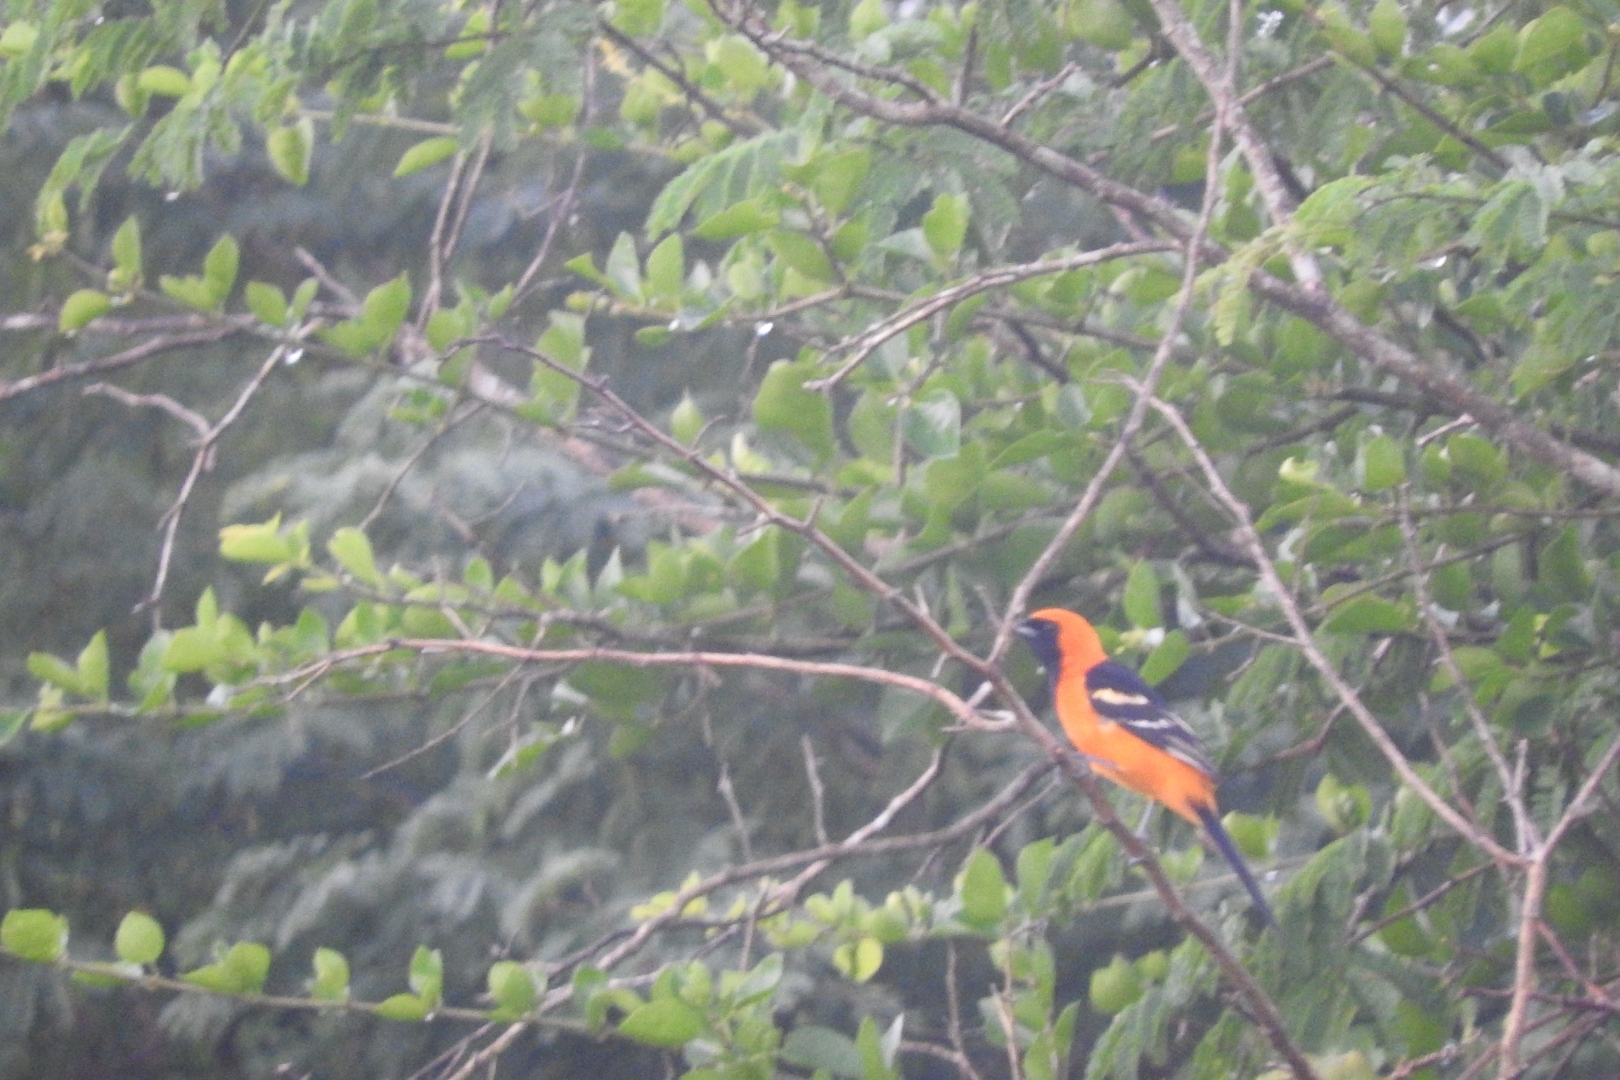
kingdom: Animalia
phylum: Chordata
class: Aves
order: Passeriformes
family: Icteridae
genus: Icterus
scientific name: Icterus cucullatus
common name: Hooded oriole
